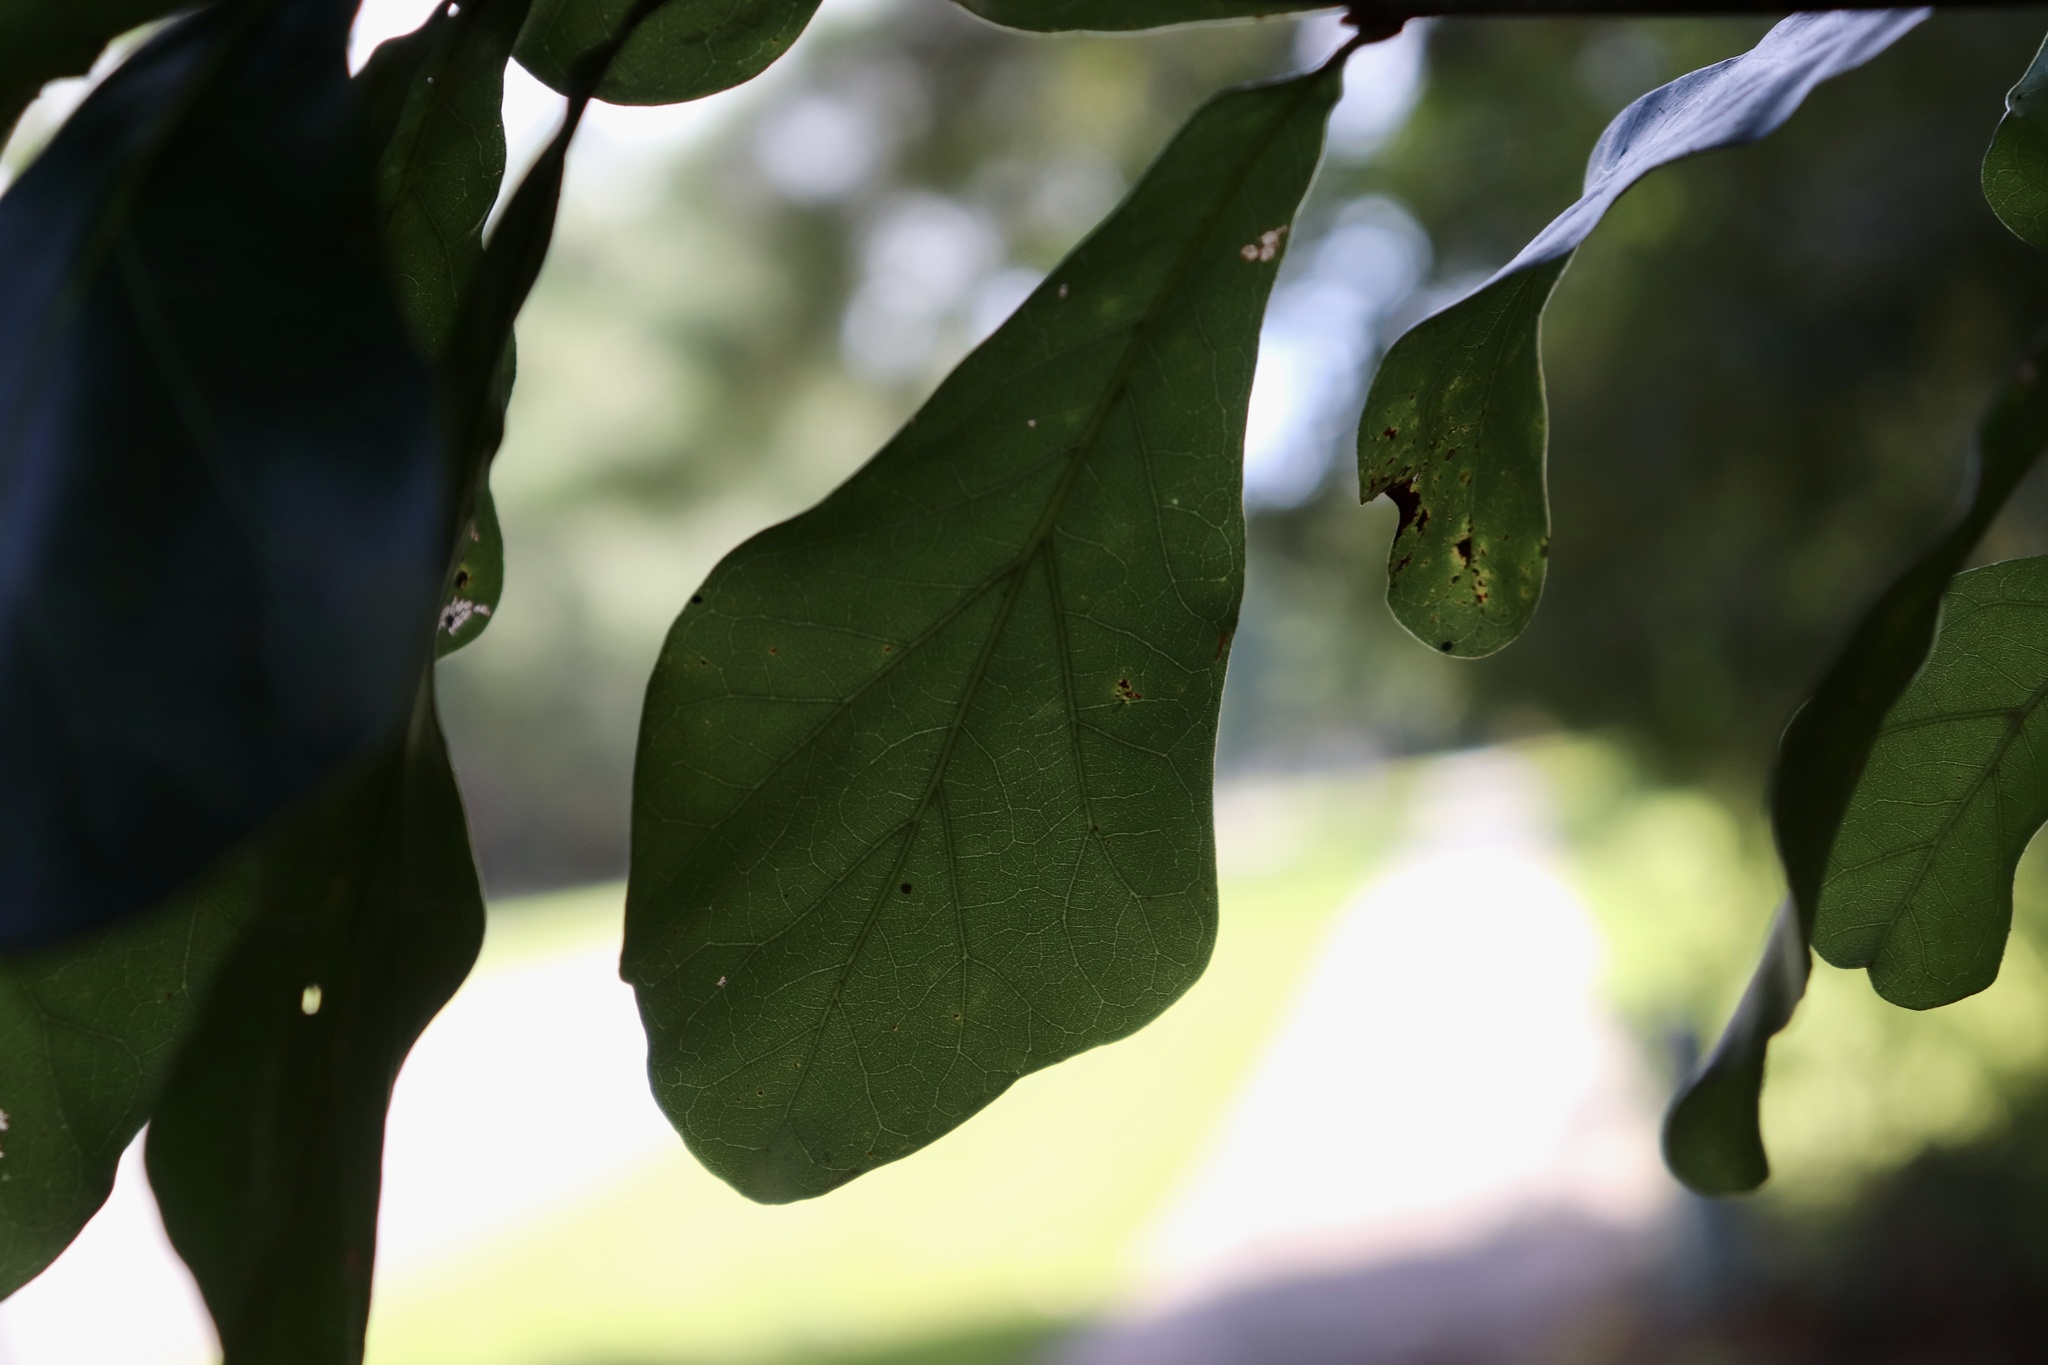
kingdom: Plantae
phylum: Tracheophyta
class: Magnoliopsida
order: Fagales
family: Fagaceae
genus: Quercus
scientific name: Quercus nigra
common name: Water oak
